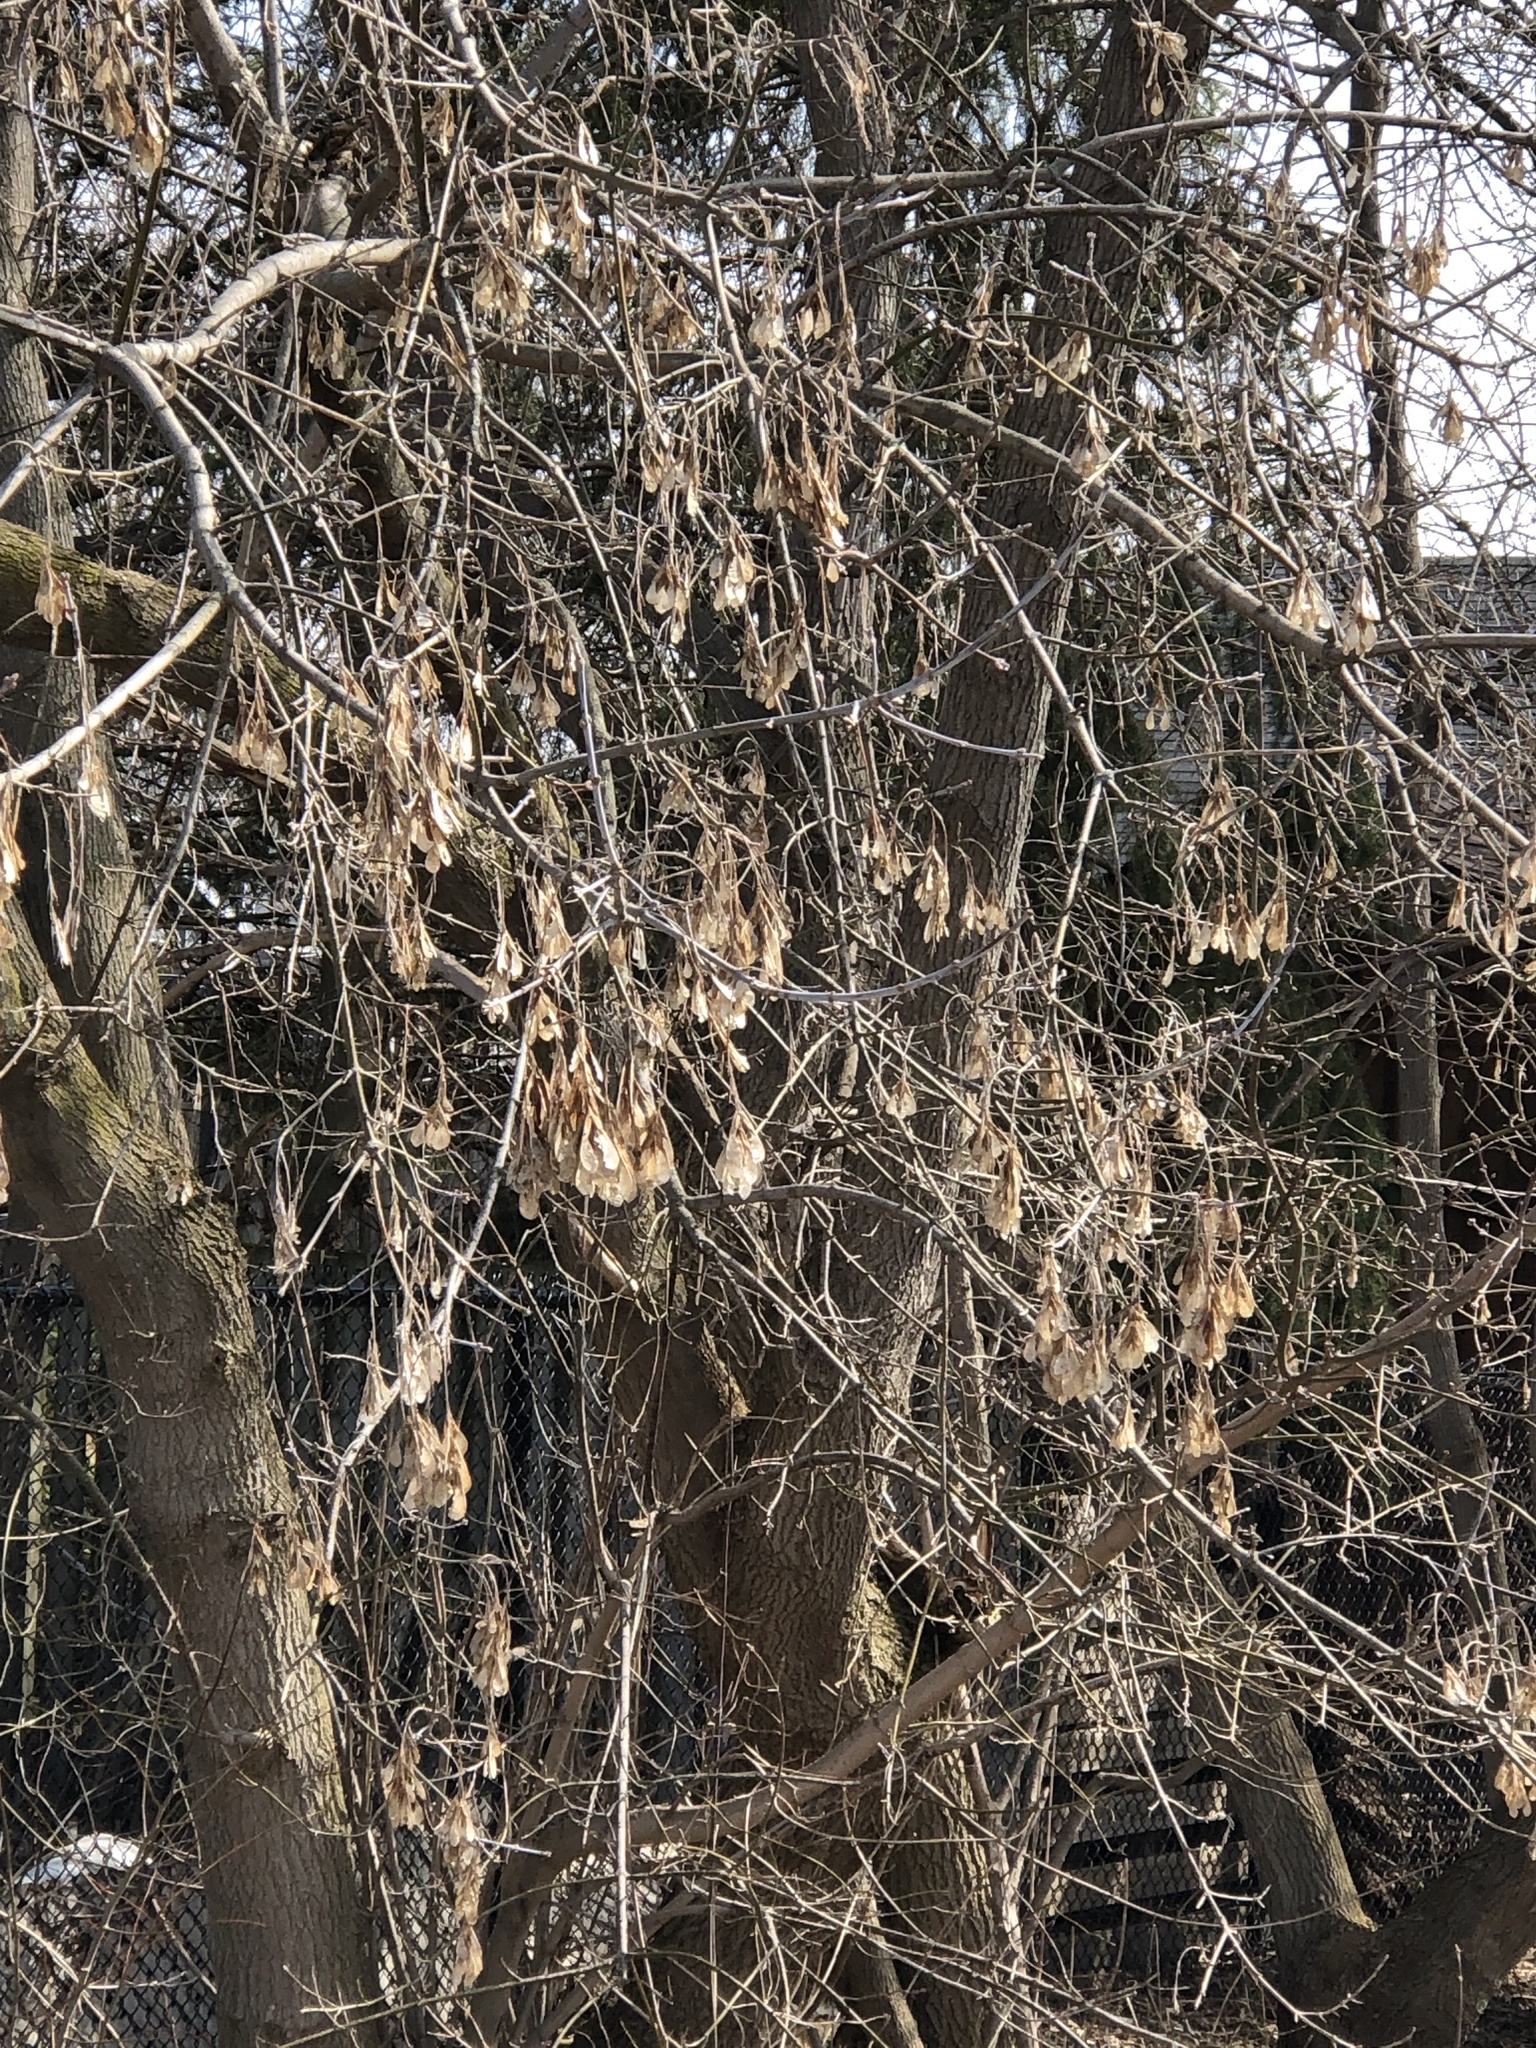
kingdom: Plantae
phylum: Tracheophyta
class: Magnoliopsida
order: Sapindales
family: Sapindaceae
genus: Acer
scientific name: Acer negundo
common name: Ashleaf maple
